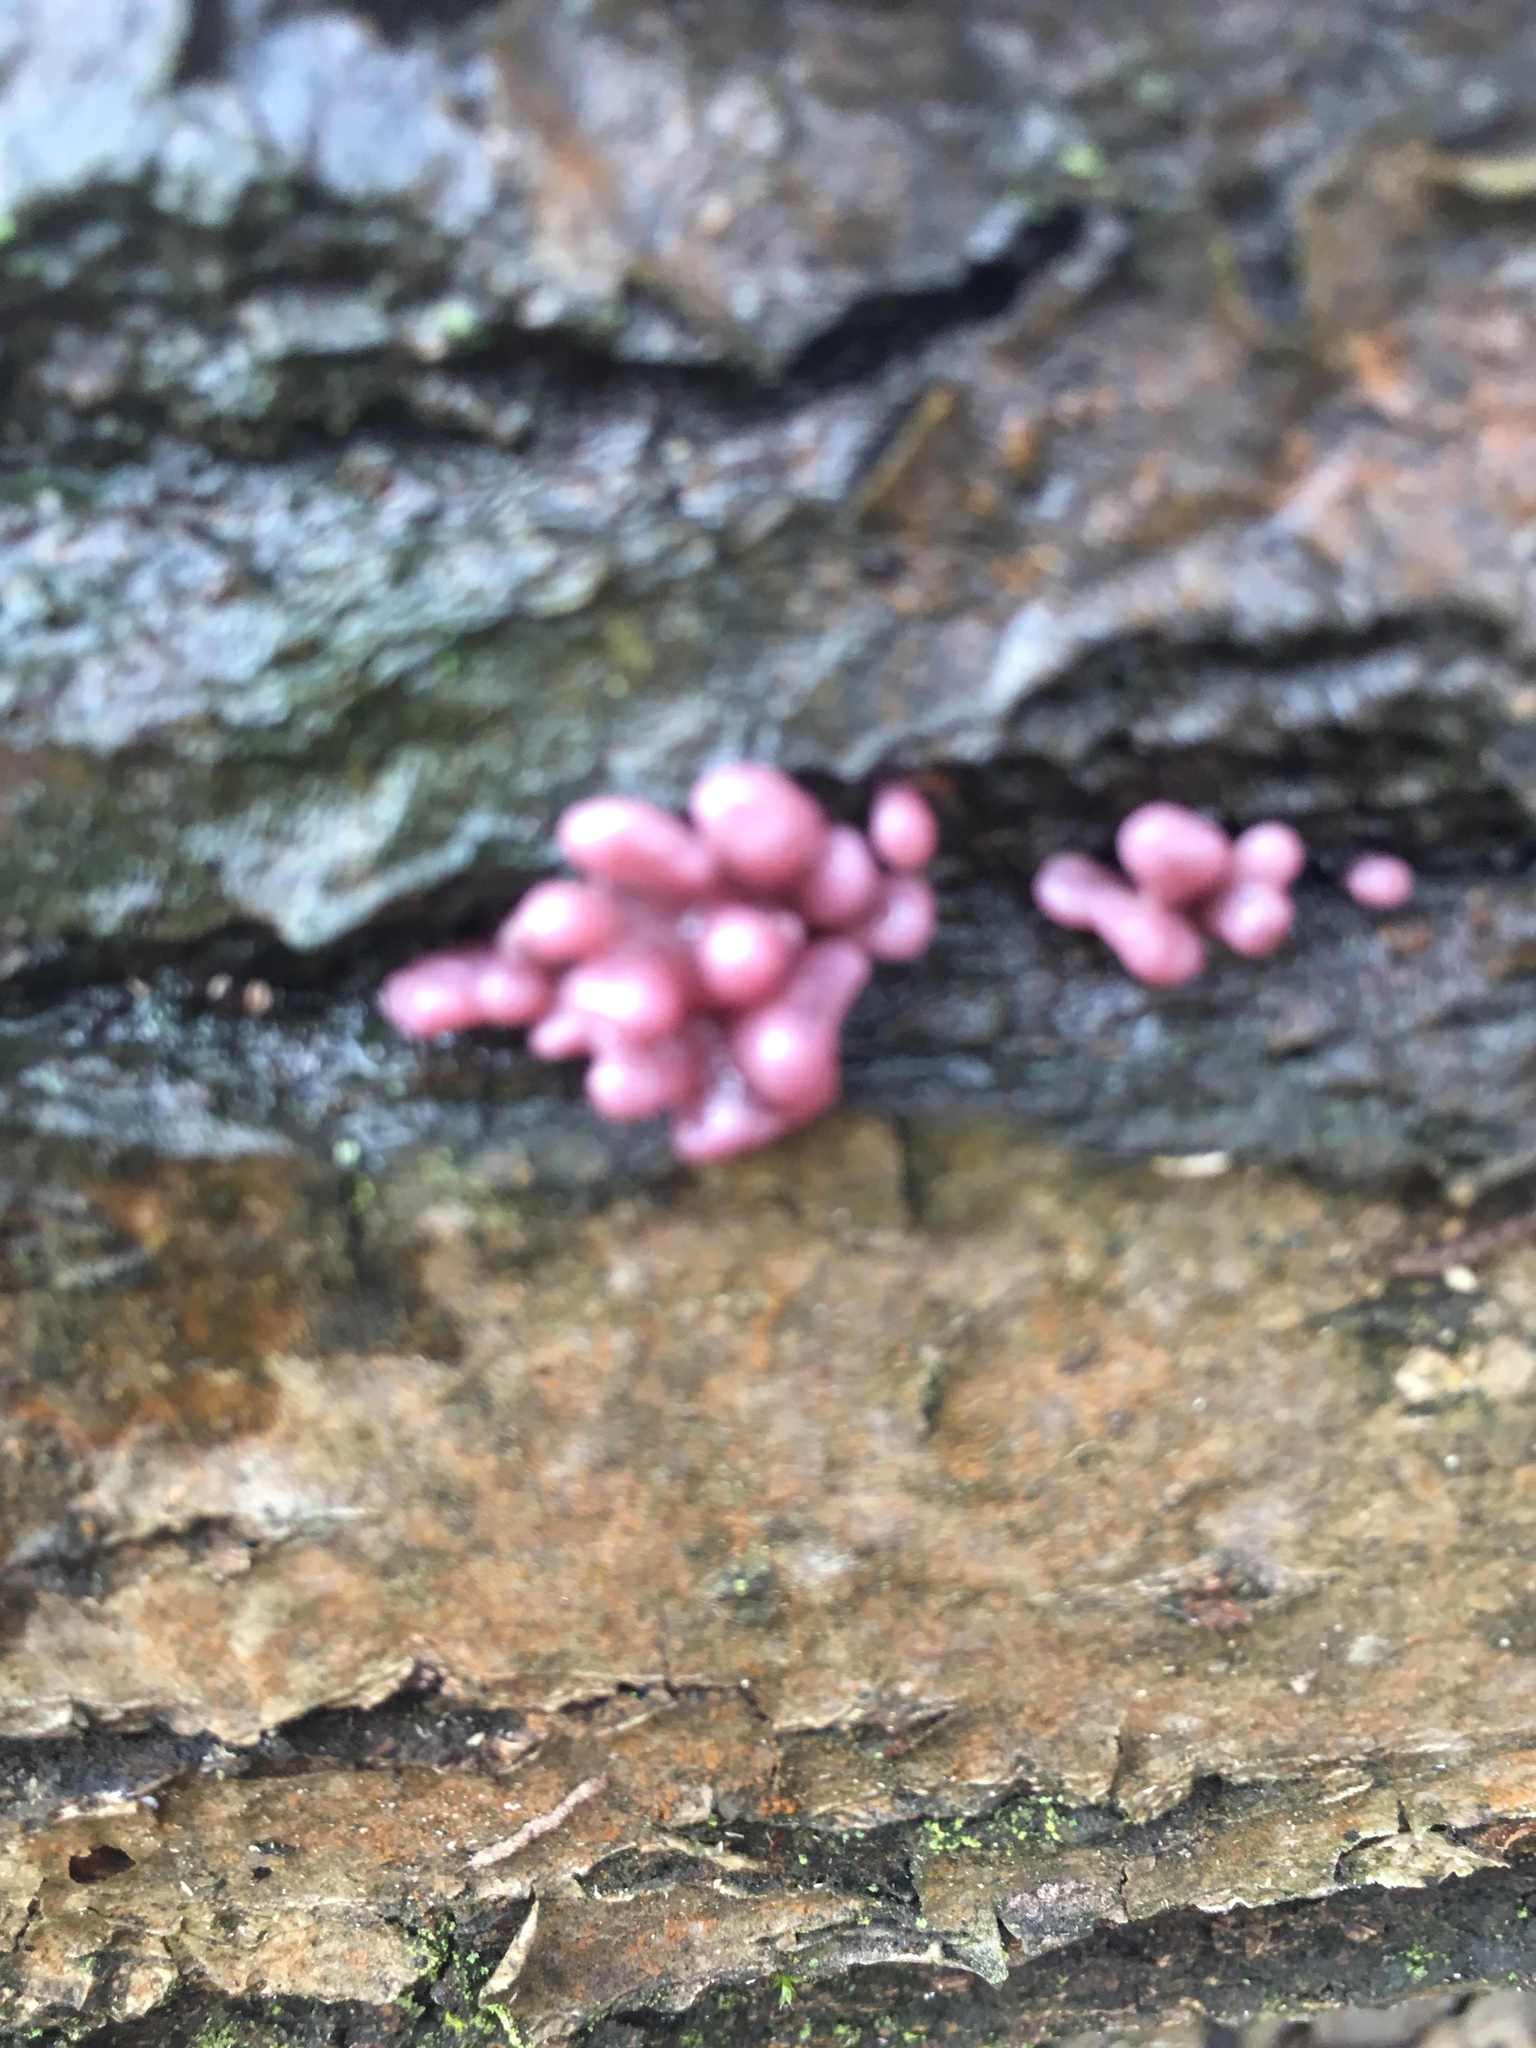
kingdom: Fungi
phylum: Ascomycota
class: Leotiomycetes
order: Helotiales
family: Gelatinodiscaceae
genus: Ascocoryne
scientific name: Ascocoryne sarcoides
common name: Purple jellydisc
